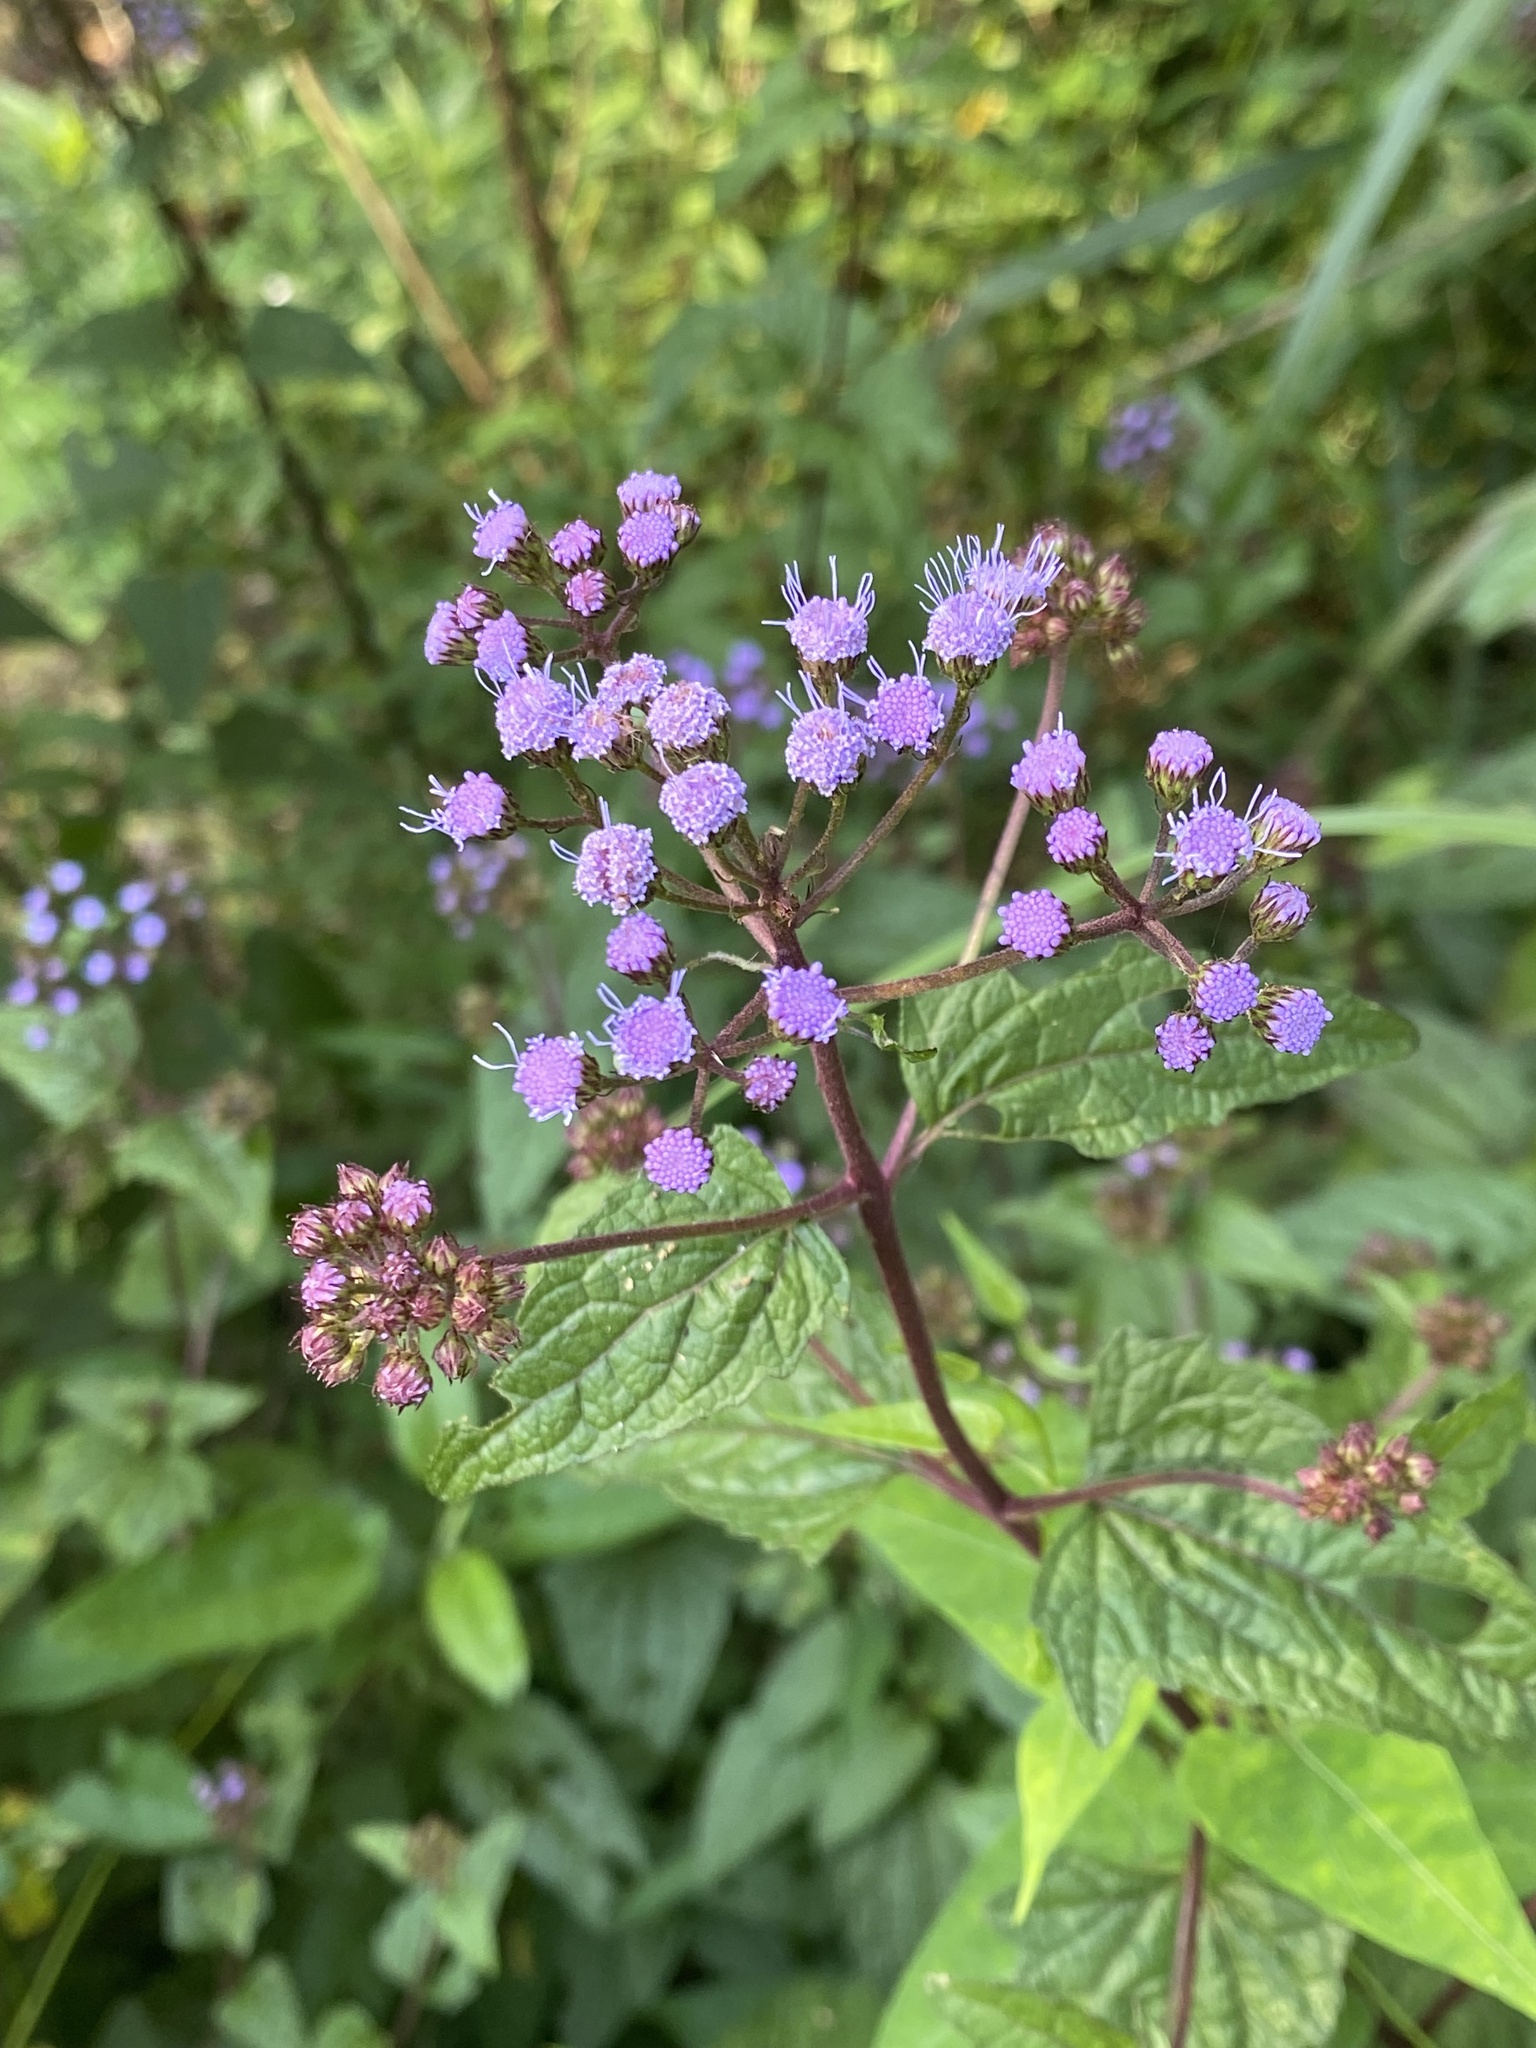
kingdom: Plantae
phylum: Tracheophyta
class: Magnoliopsida
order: Asterales
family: Asteraceae
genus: Conoclinium
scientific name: Conoclinium coelestinum
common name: Blue mistflower
